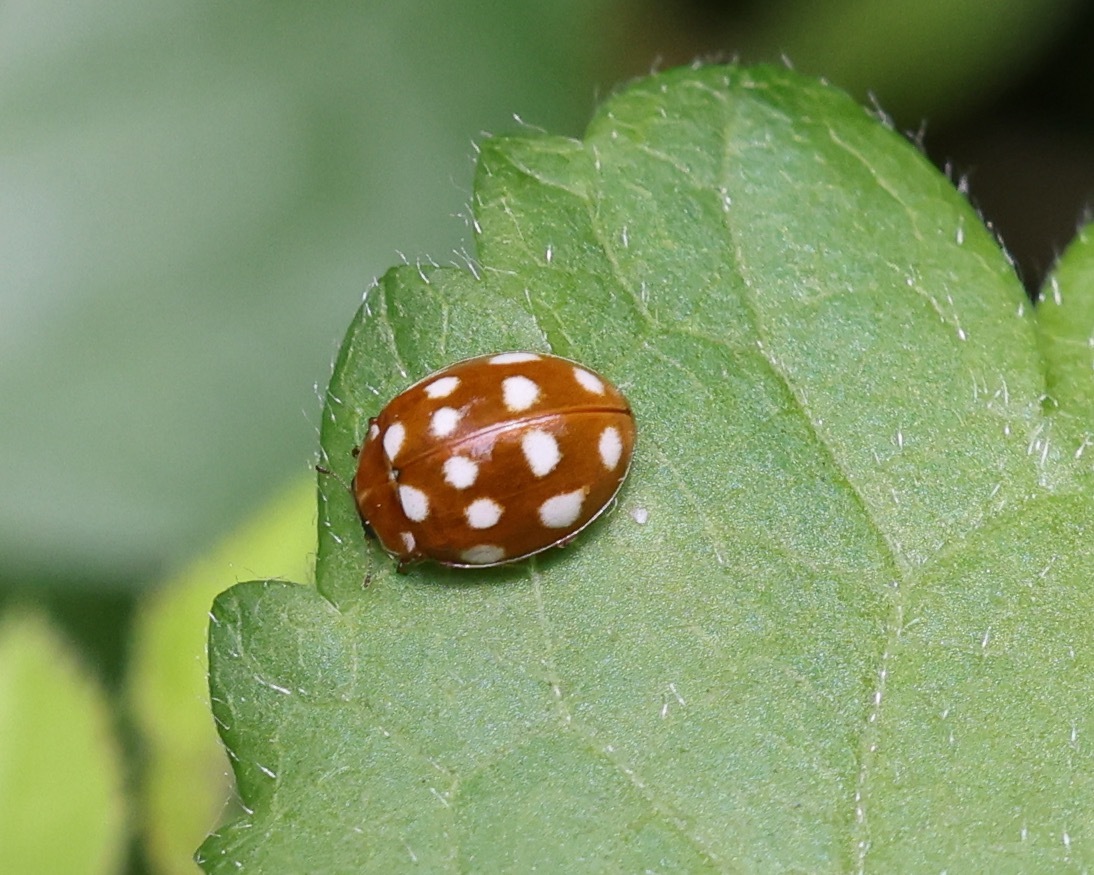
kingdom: Animalia
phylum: Arthropoda
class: Insecta
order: Coleoptera
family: Coccinellidae
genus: Calvia
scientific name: Calvia quatuordecimguttata
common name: Cream-spot ladybird
